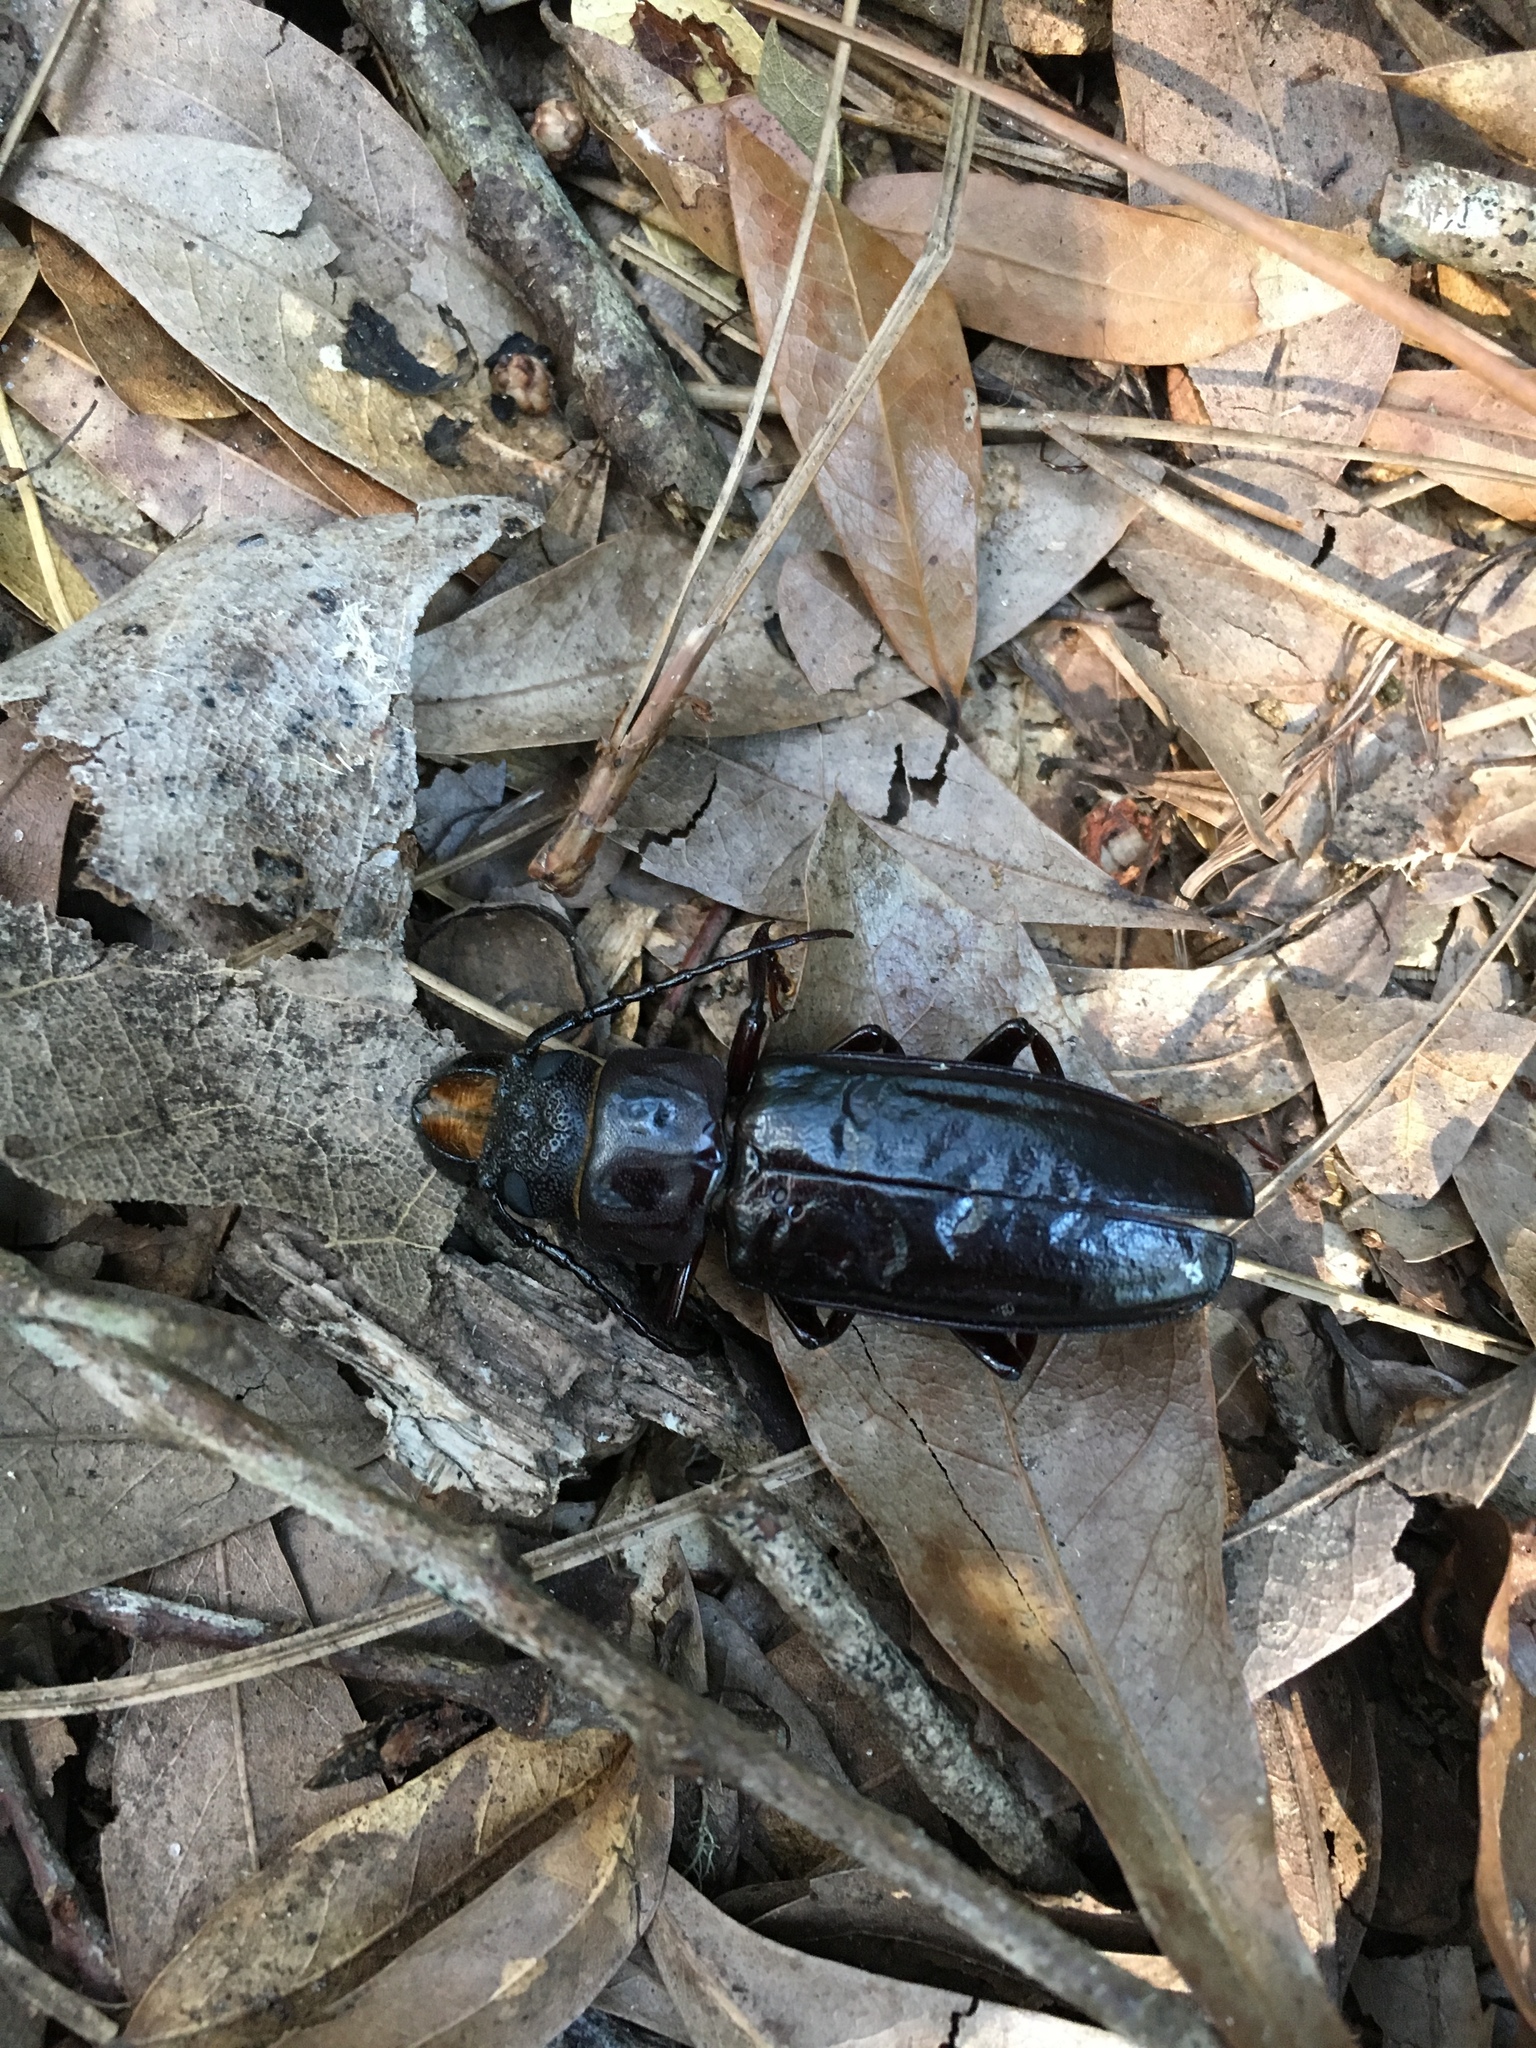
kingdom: Animalia
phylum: Arthropoda
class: Insecta
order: Coleoptera
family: Cerambycidae
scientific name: Cerambycidae
